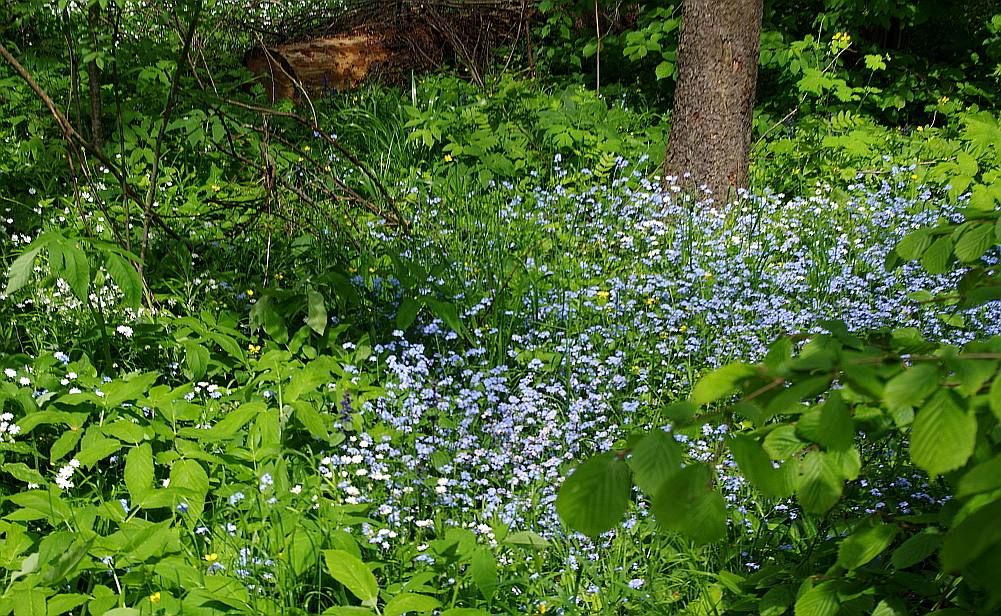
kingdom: Plantae
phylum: Tracheophyta
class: Magnoliopsida
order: Boraginales
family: Boraginaceae
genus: Myosotis
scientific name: Myosotis sylvatica
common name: Wood forget-me-not
